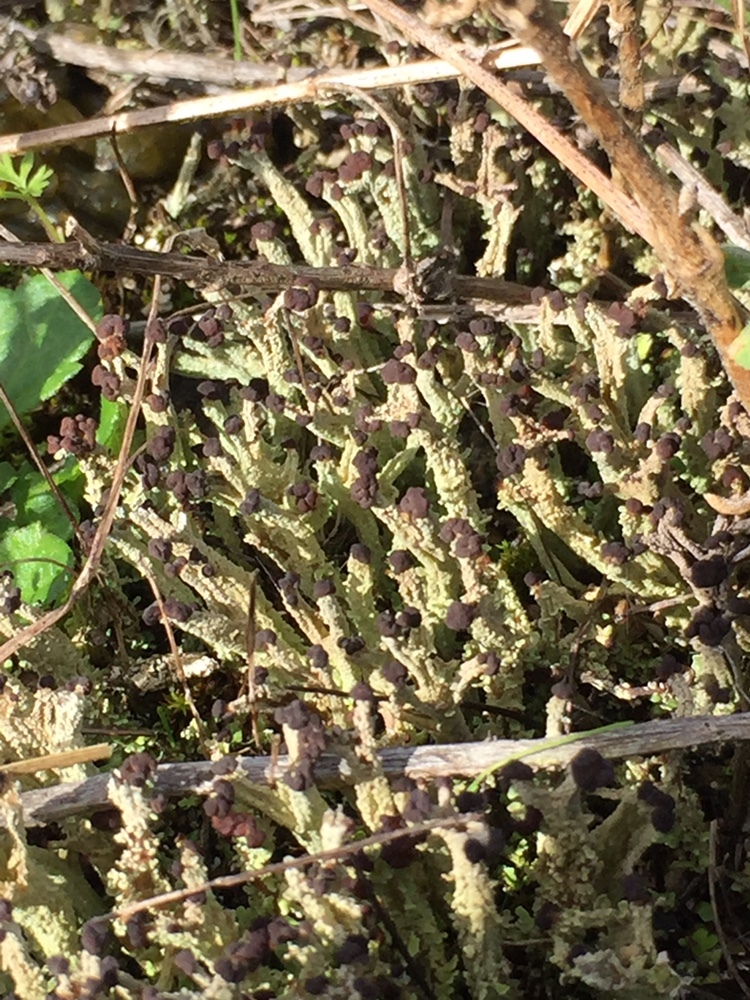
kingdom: Fungi
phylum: Ascomycota
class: Lecanoromycetes
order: Lecanorales
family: Cladoniaceae
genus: Cladonia
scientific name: Cladonia enantia
